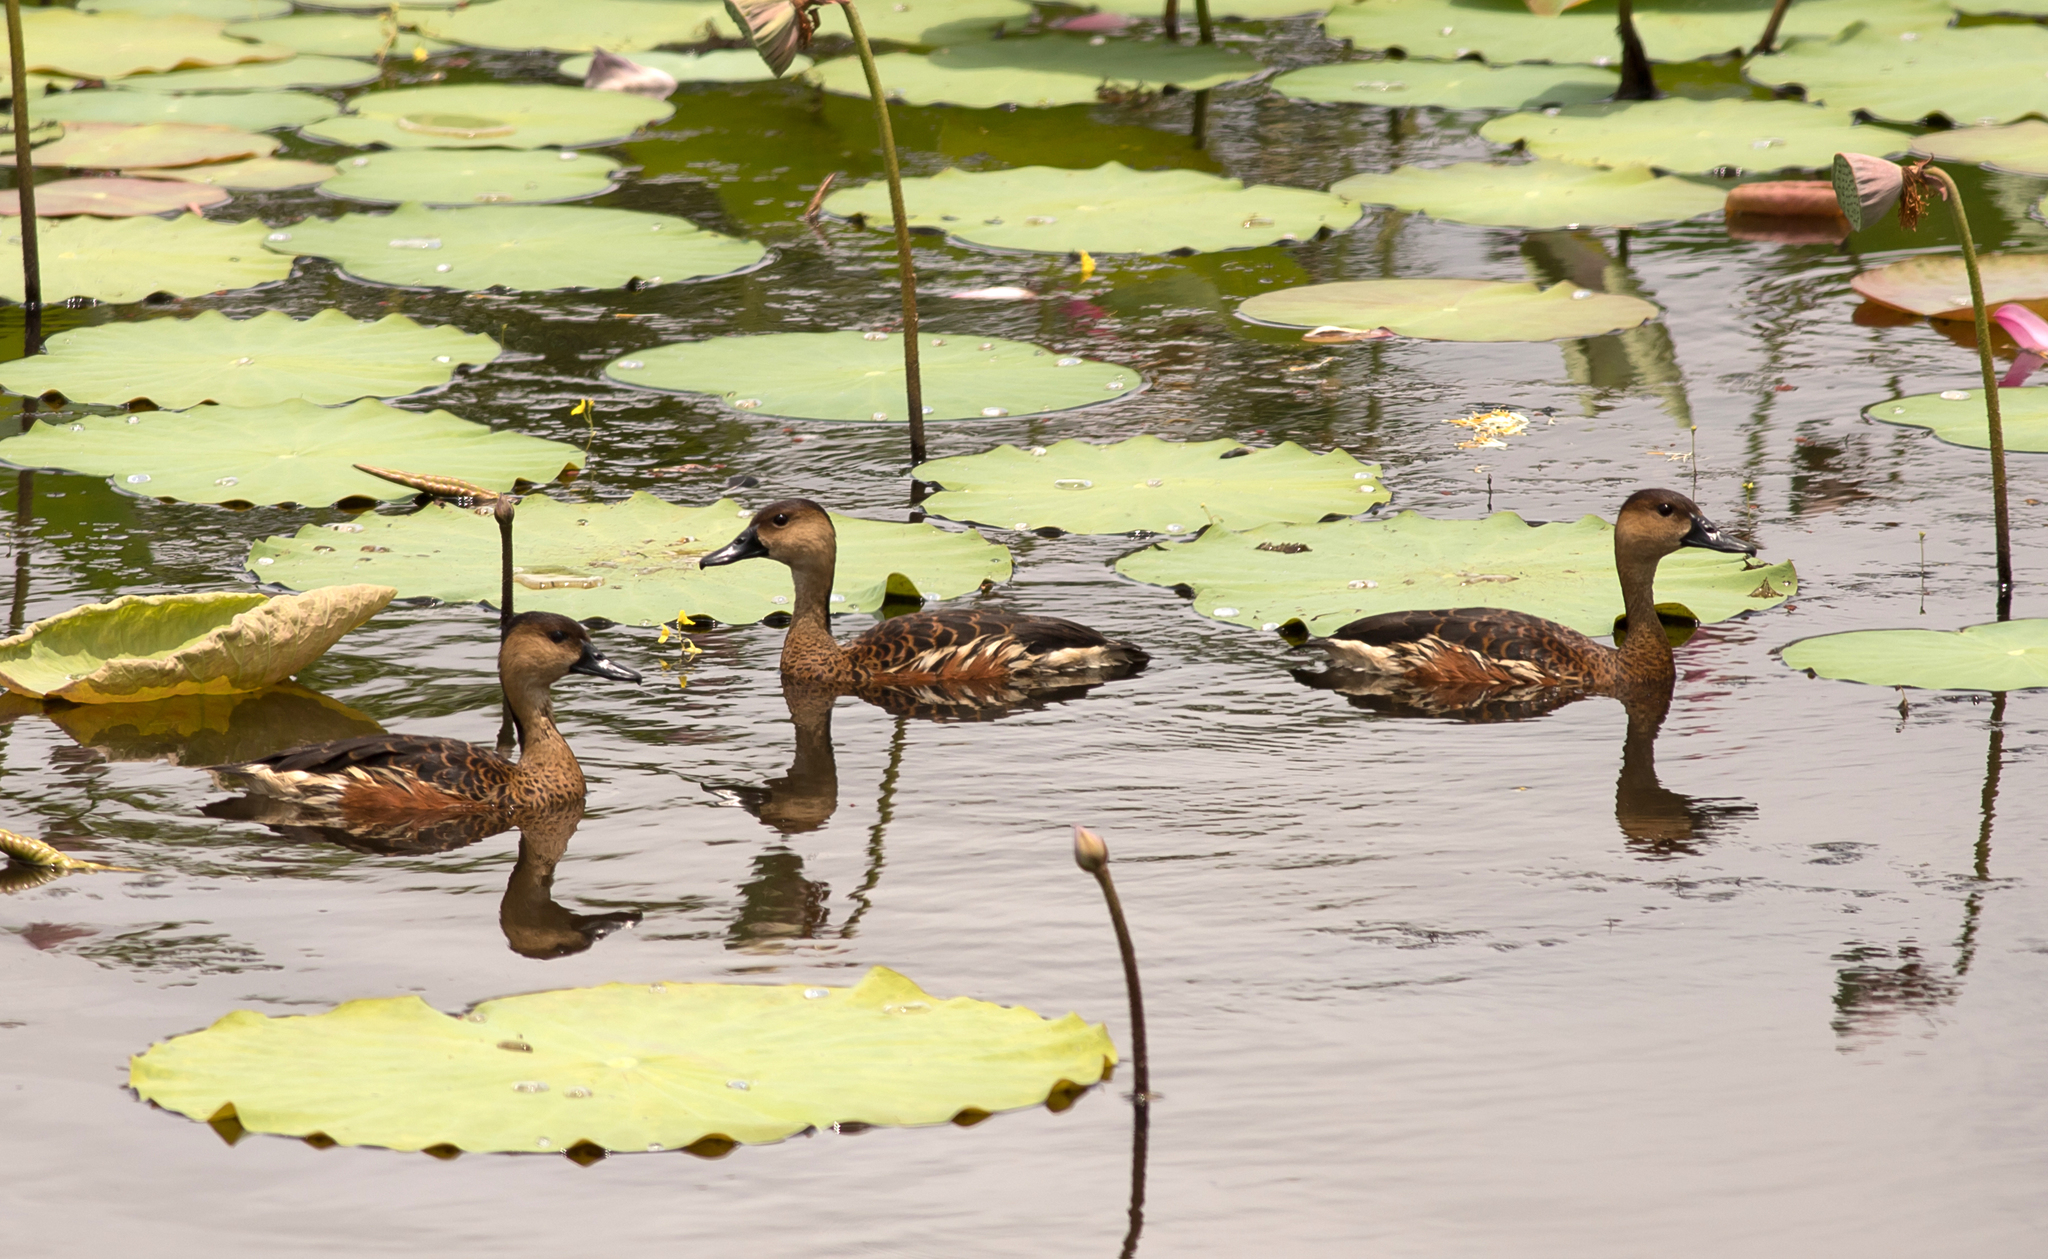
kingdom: Animalia
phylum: Chordata
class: Aves
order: Anseriformes
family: Anatidae
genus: Dendrocygna
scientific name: Dendrocygna arcuata
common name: Wandering whistling-duck
